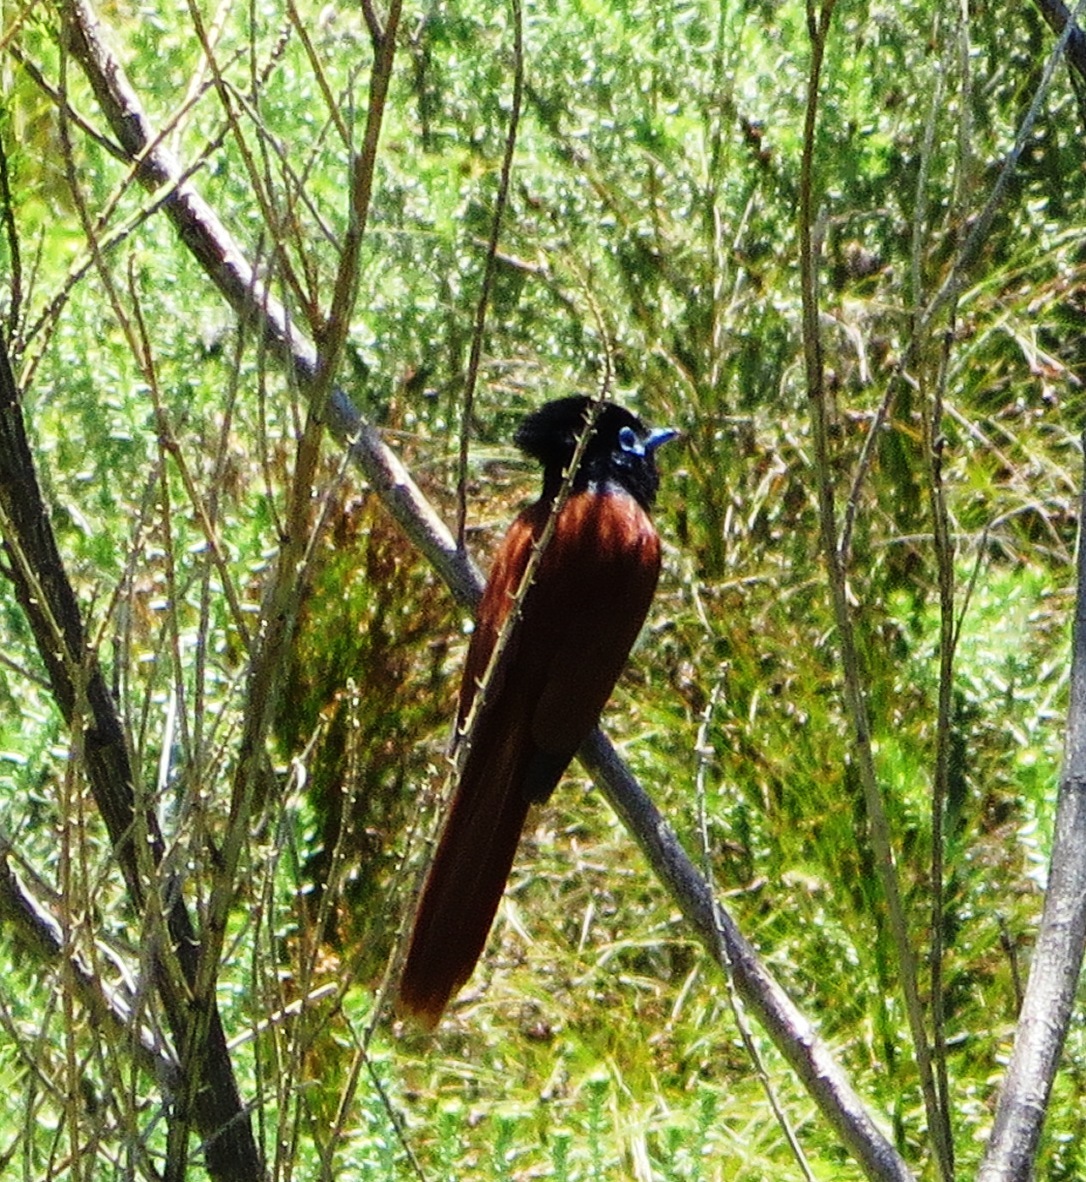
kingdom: Animalia
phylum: Chordata
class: Aves
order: Passeriformes
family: Monarchidae
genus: Terpsiphone
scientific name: Terpsiphone viridis
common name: African paradise flycatcher
